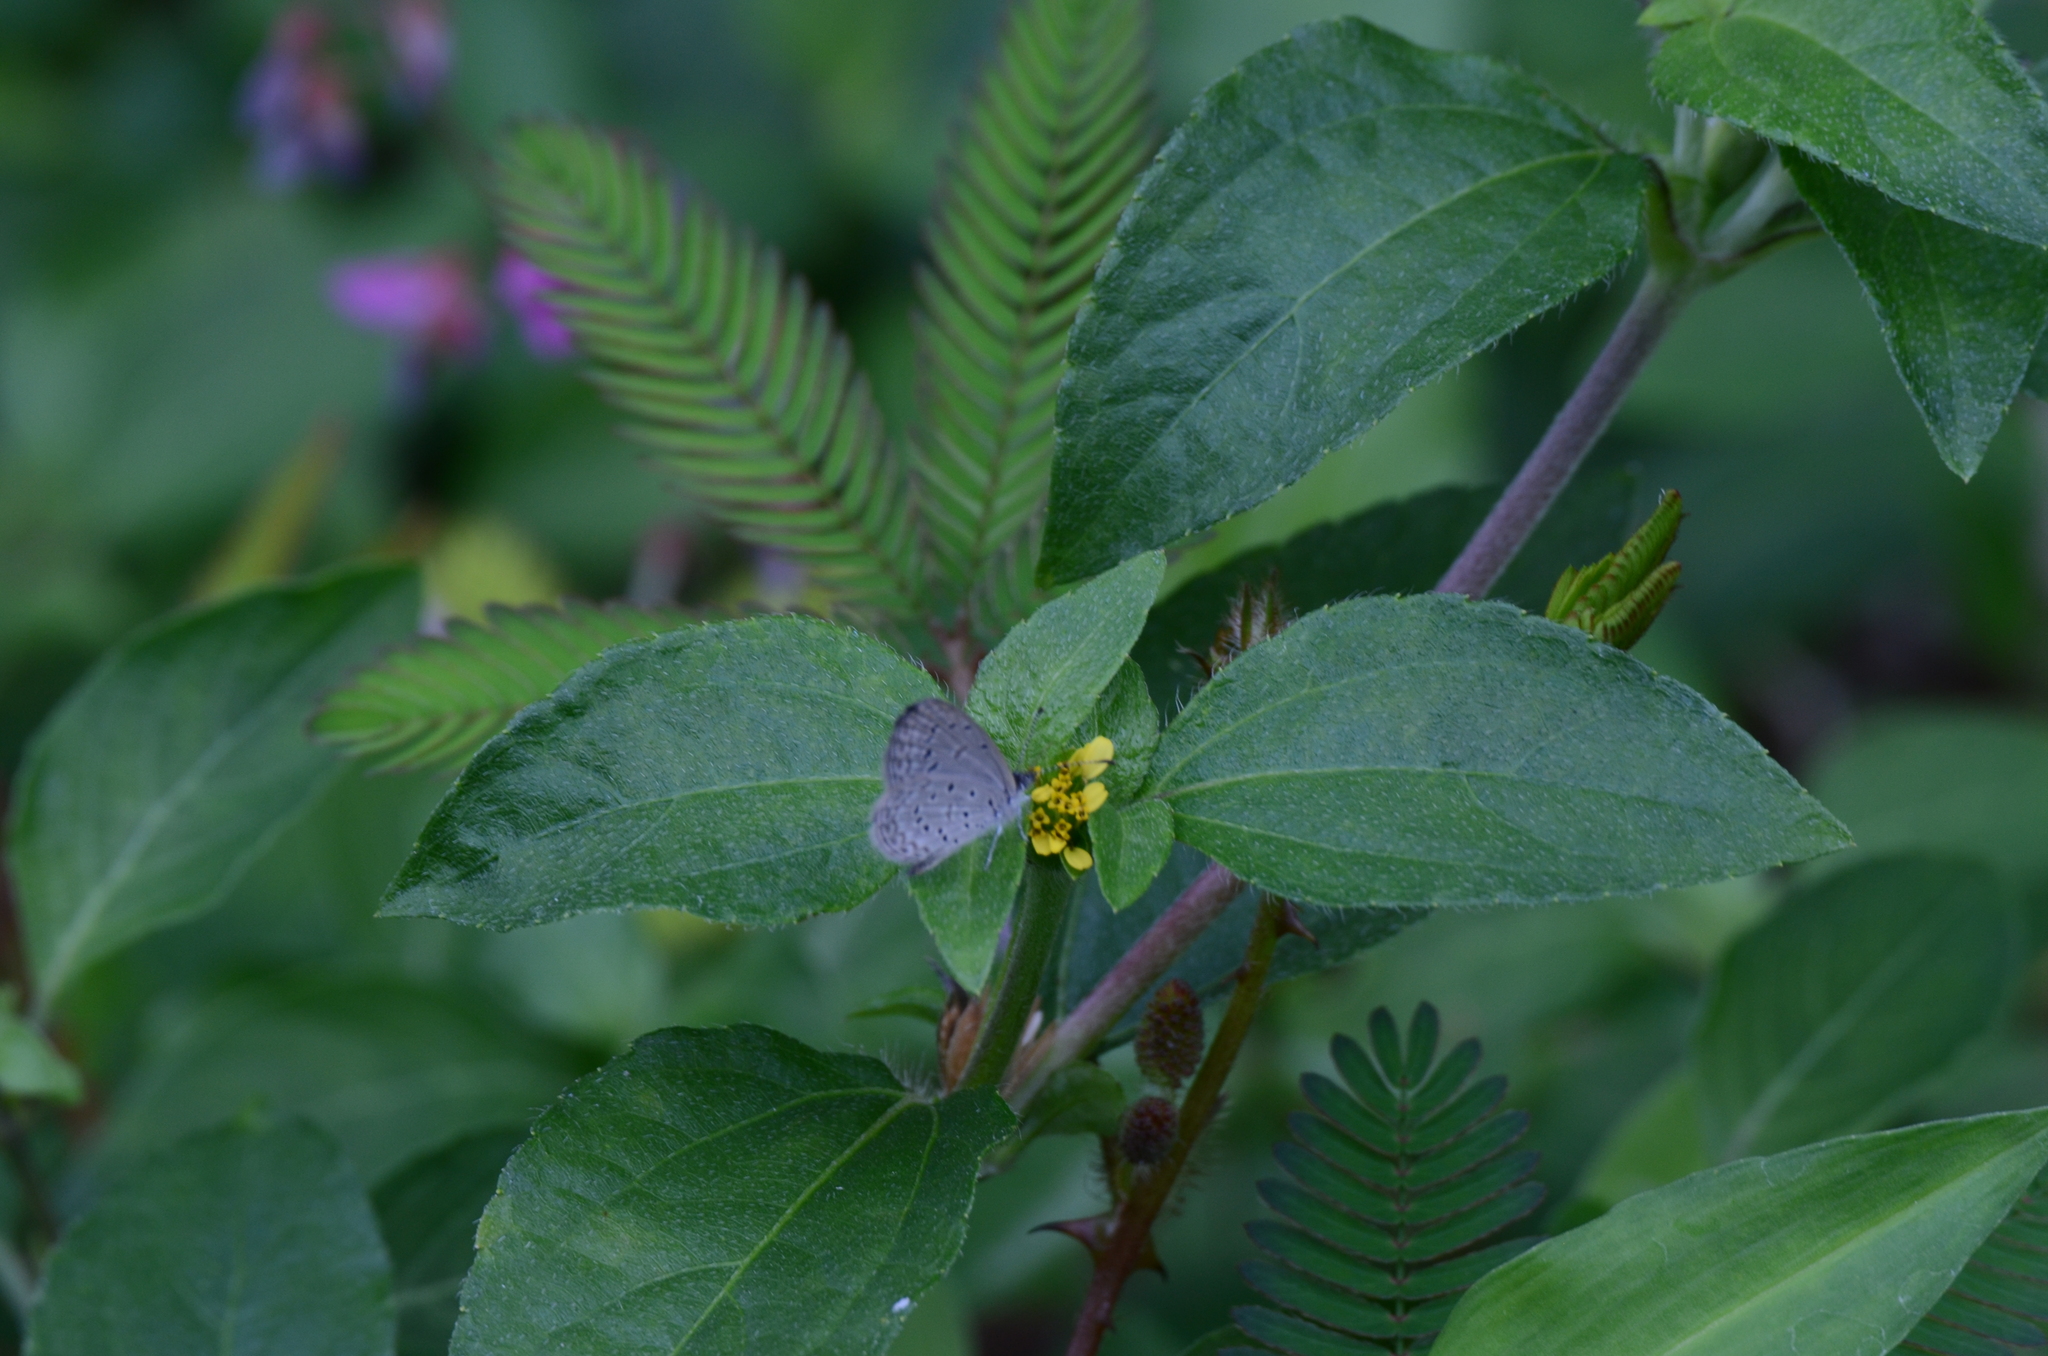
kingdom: Animalia
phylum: Arthropoda
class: Insecta
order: Lepidoptera
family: Lycaenidae
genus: Zizula
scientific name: Zizula hylax
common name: Gaika blue
